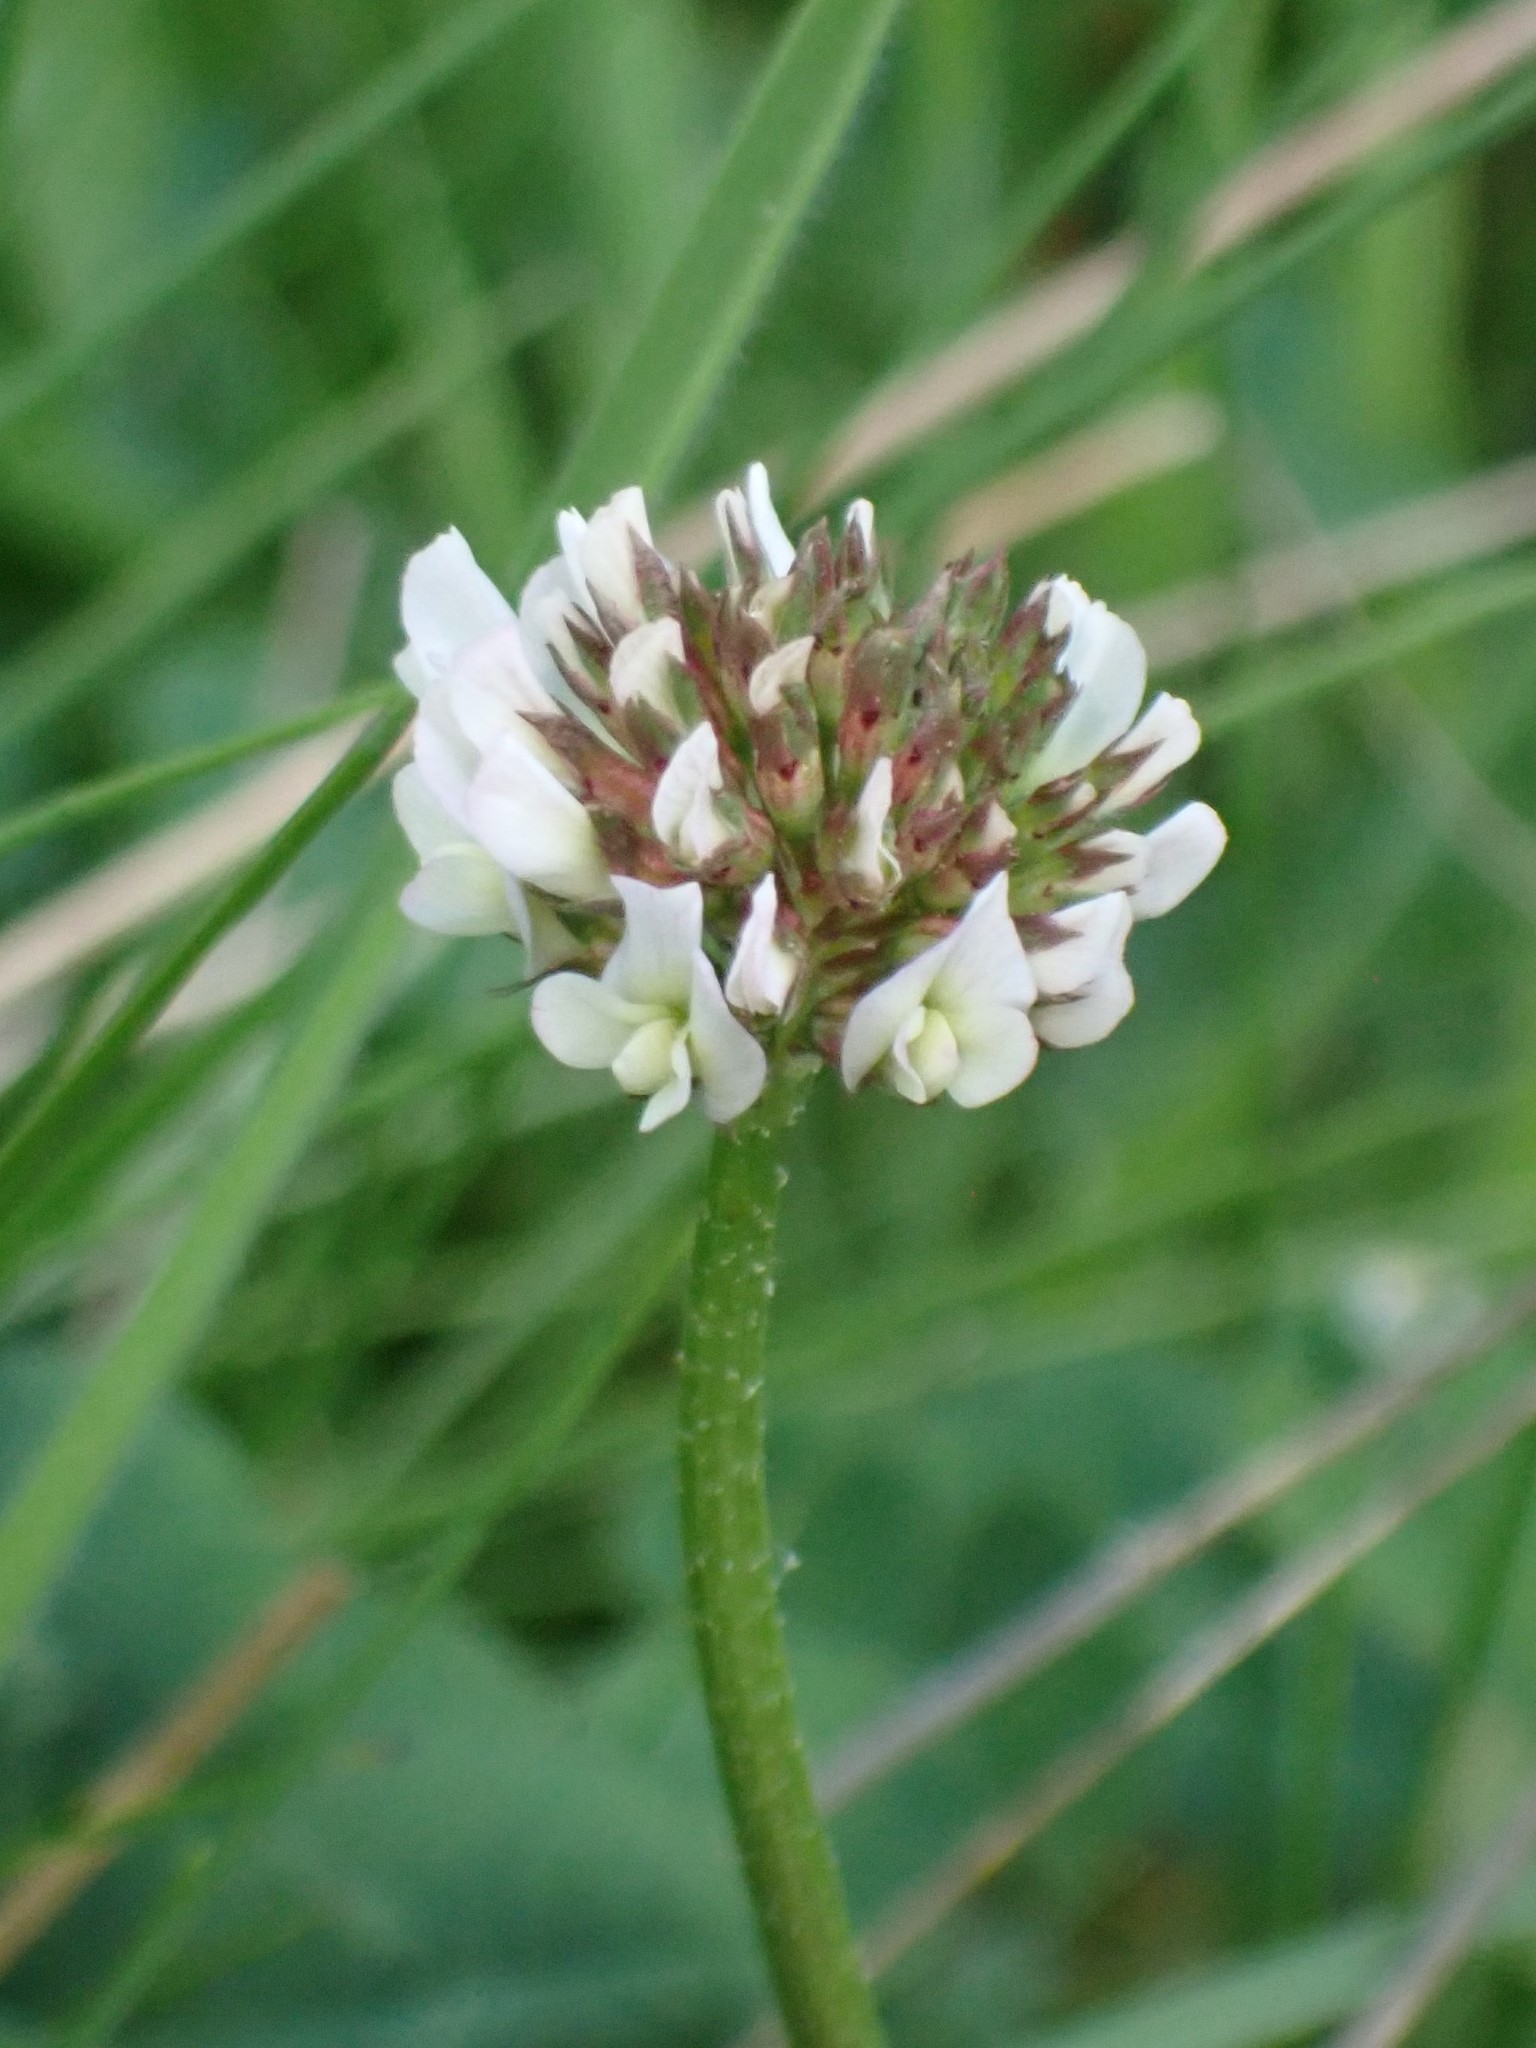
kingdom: Plantae
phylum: Tracheophyta
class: Magnoliopsida
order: Fabales
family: Fabaceae
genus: Trifolium
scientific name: Trifolium repens
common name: White clover
